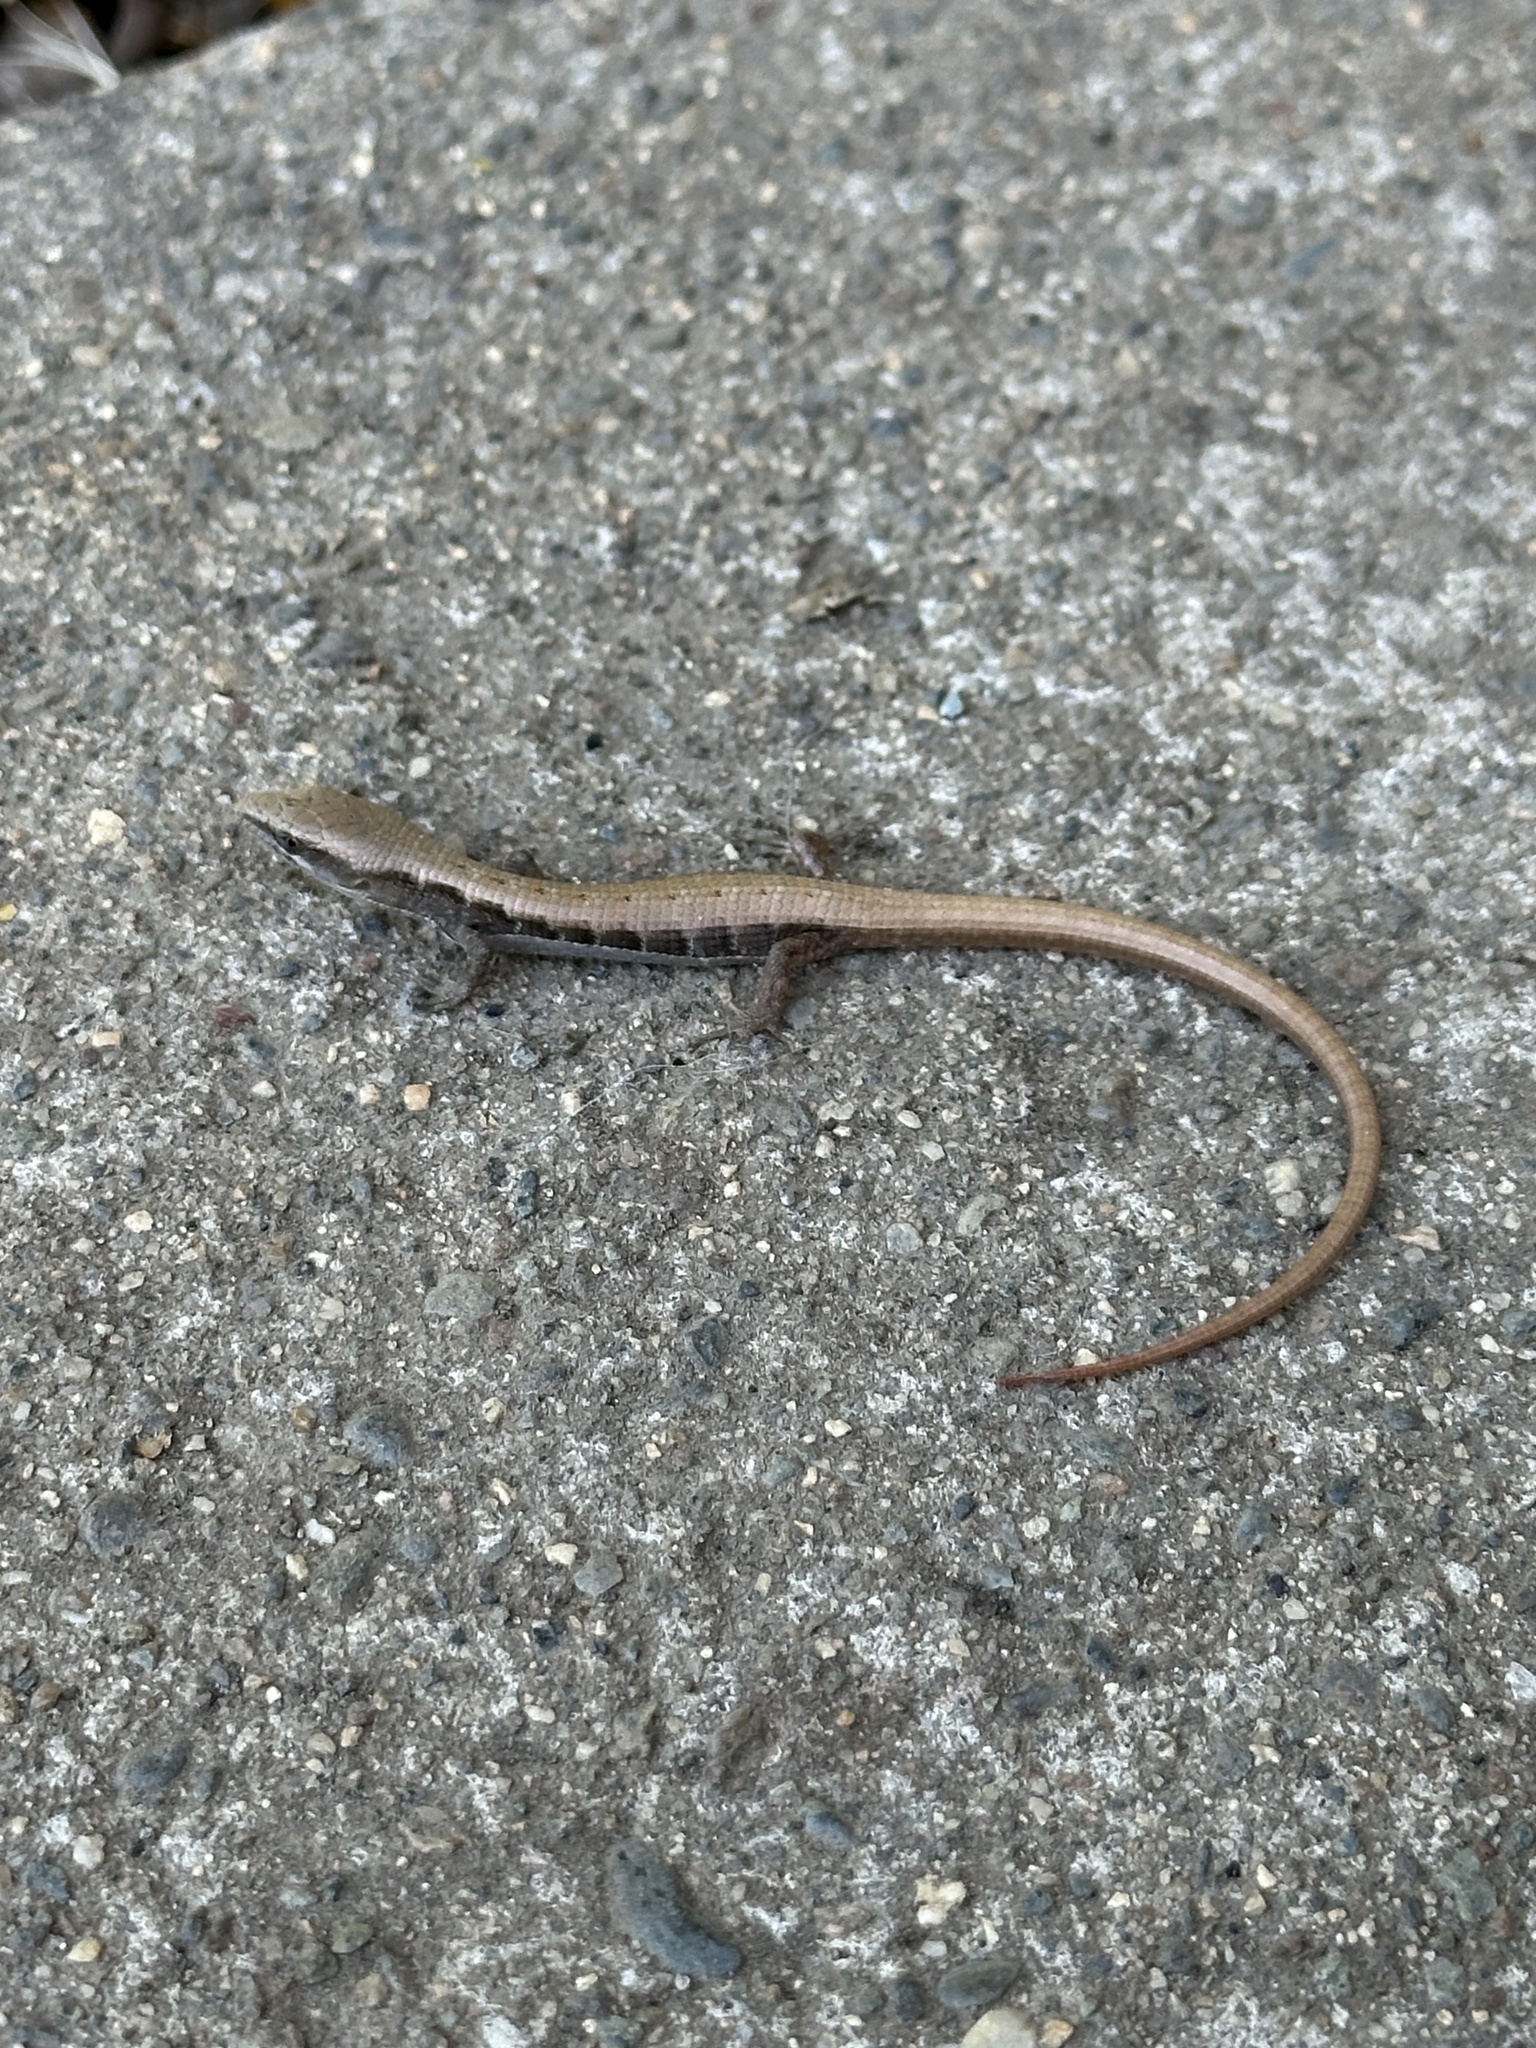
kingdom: Animalia
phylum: Chordata
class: Squamata
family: Anguidae
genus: Elgaria
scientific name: Elgaria multicarinata
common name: Southern alligator lizard
